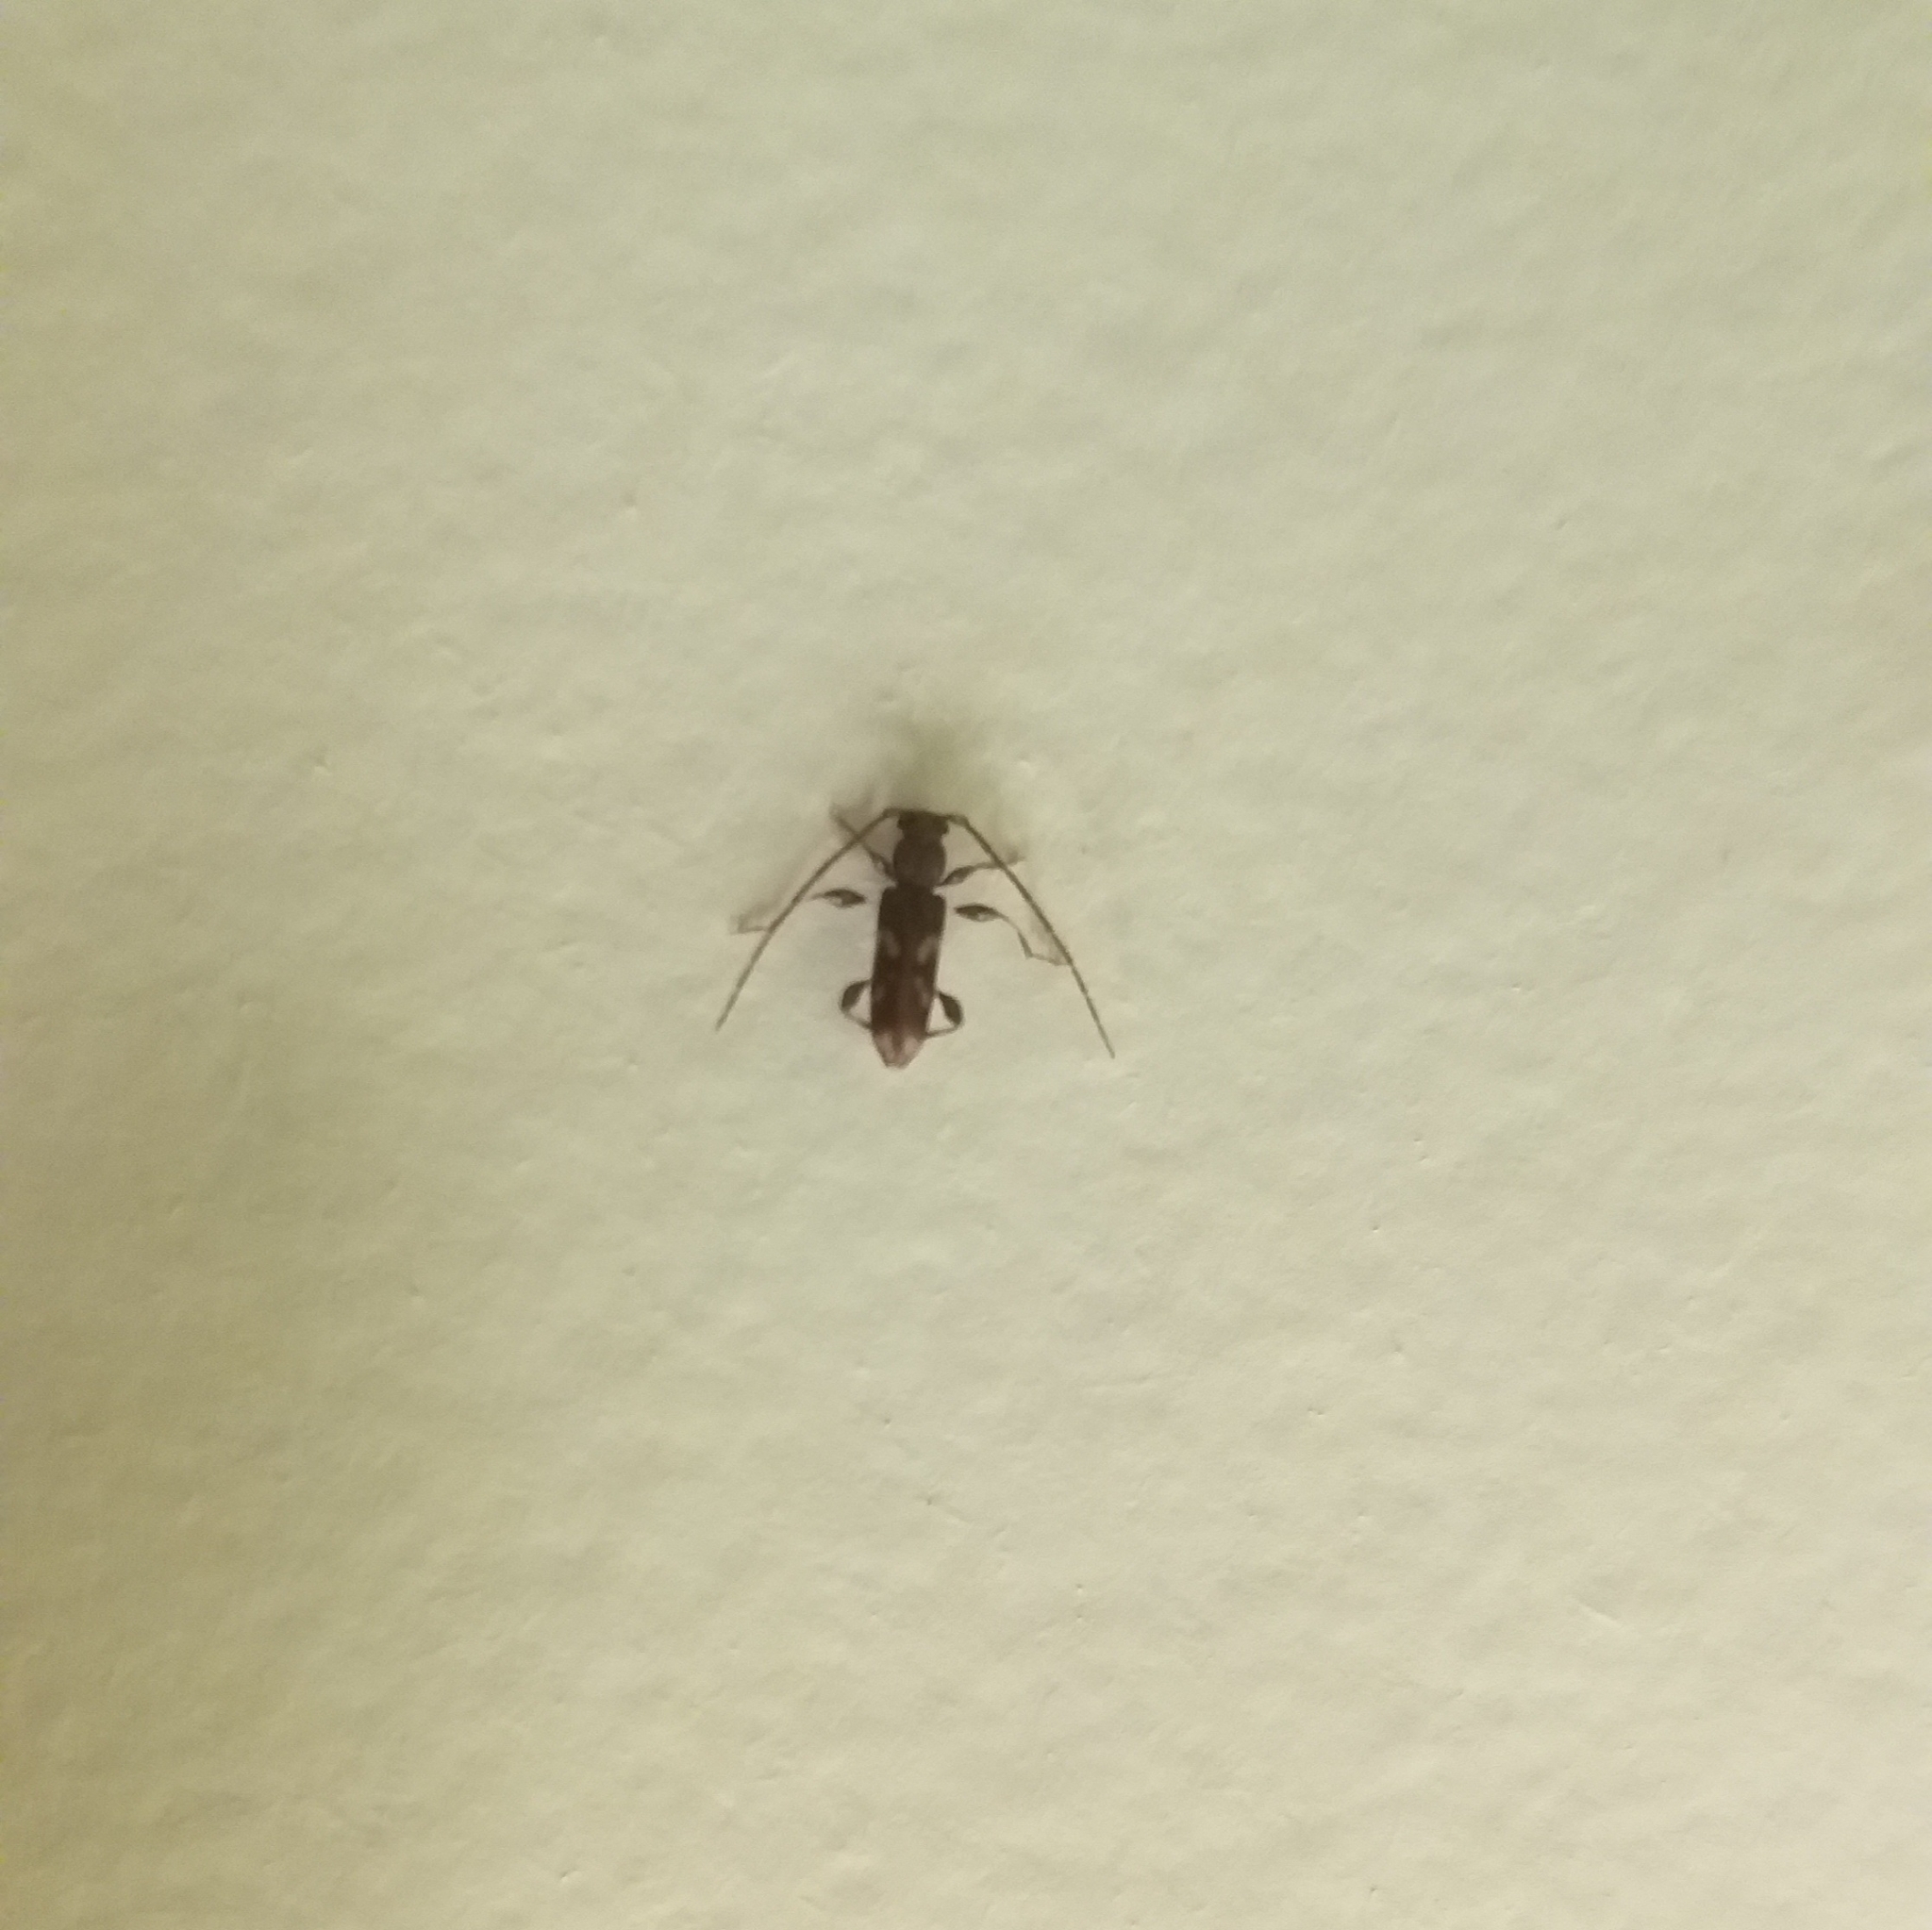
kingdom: Animalia
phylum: Arthropoda
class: Insecta
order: Coleoptera
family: Cerambycidae
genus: Bethelium
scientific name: Bethelium signiferum
